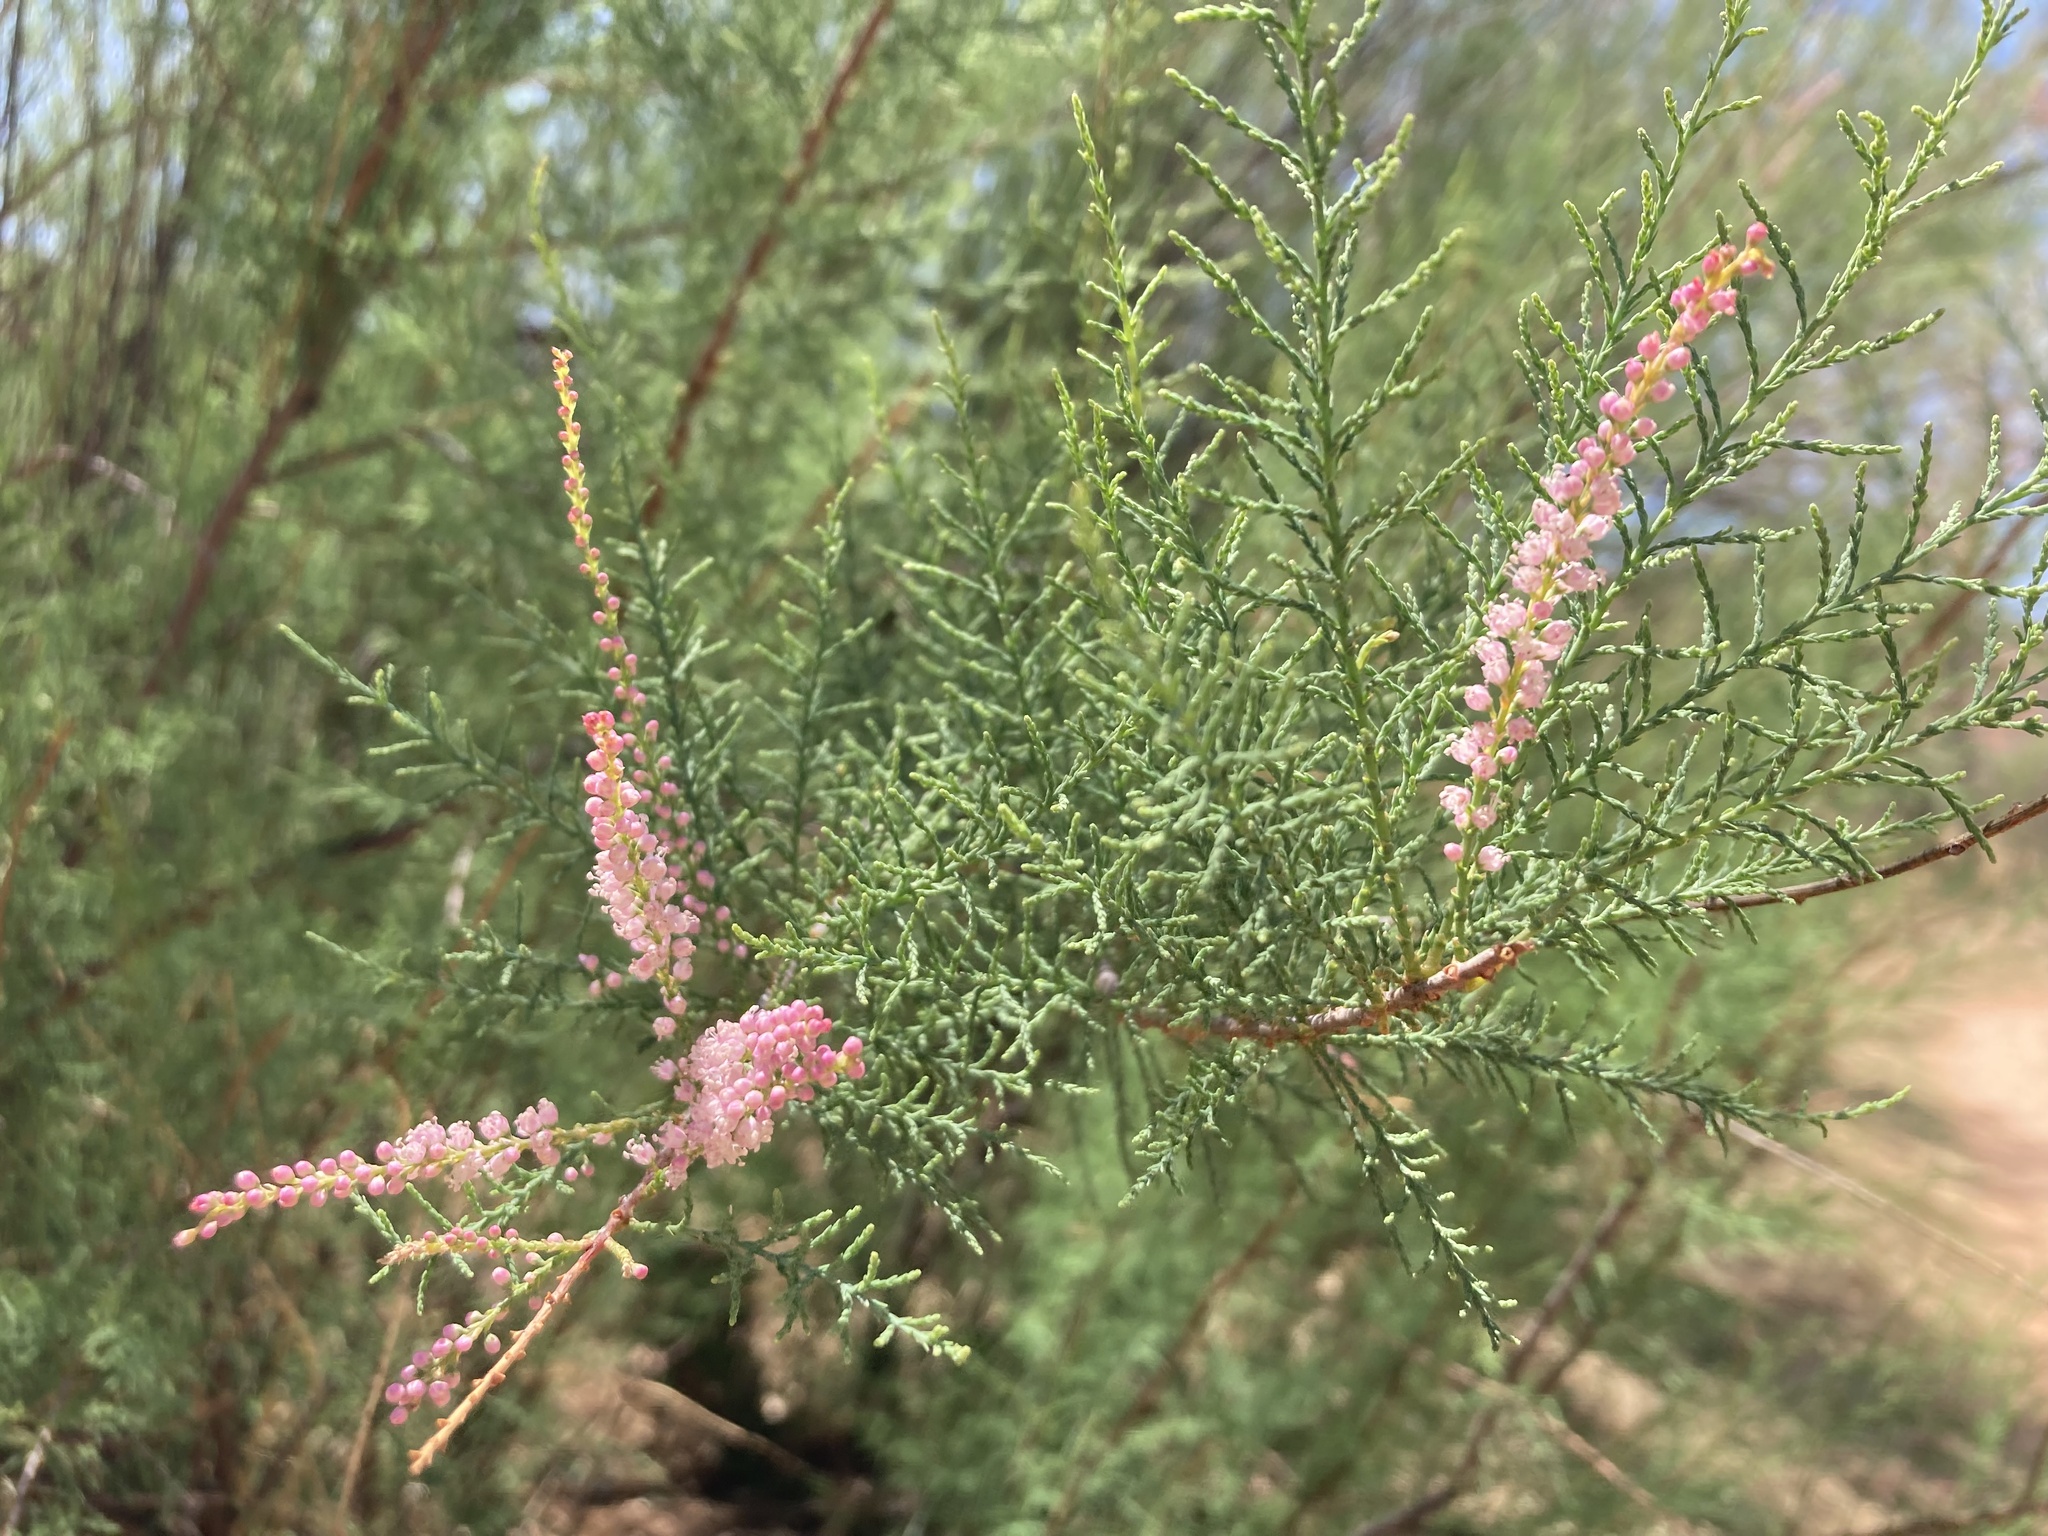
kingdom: Plantae
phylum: Tracheophyta
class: Magnoliopsida
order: Caryophyllales
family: Tamaricaceae
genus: Tamarix
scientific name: Tamarix ramosissima
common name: Pink tamarisk
